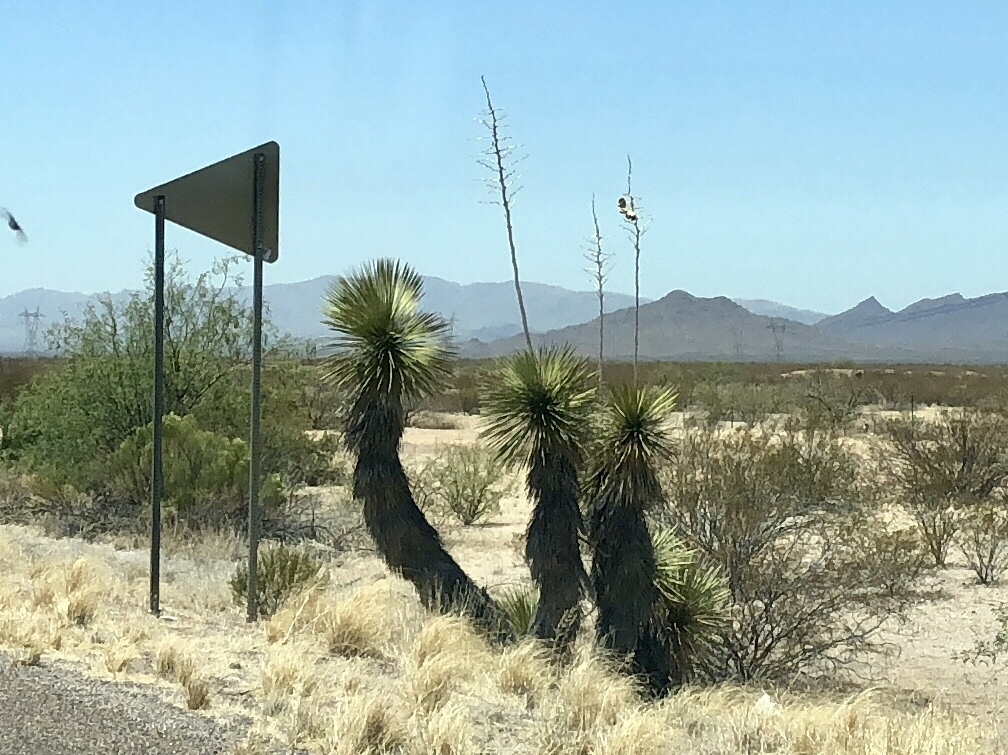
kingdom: Plantae
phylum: Tracheophyta
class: Liliopsida
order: Asparagales
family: Asparagaceae
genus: Yucca
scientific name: Yucca elata
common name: Palmella
